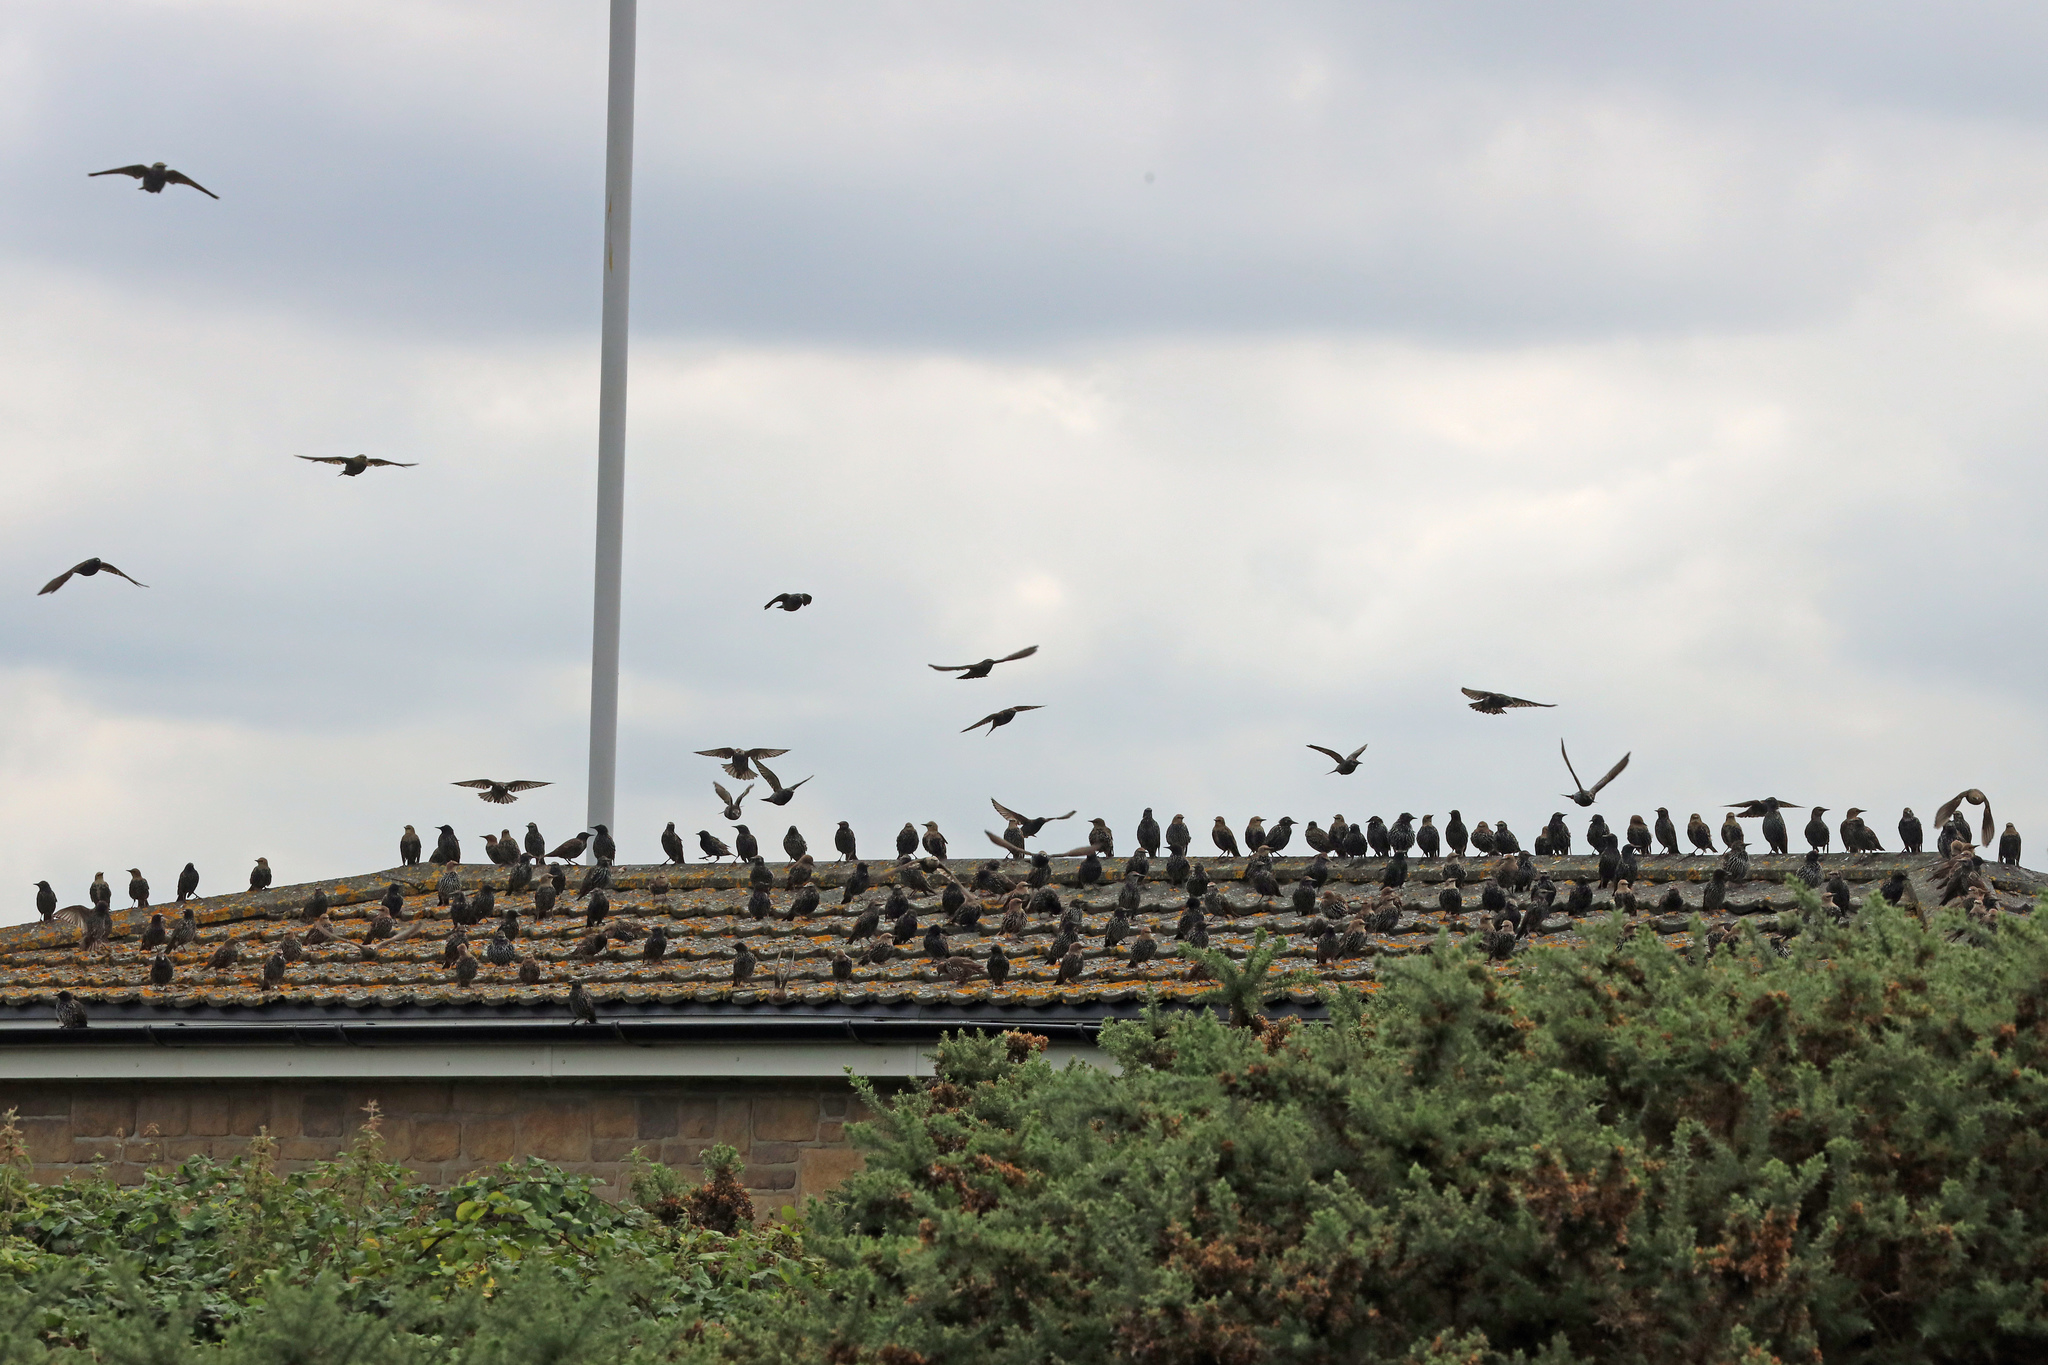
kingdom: Animalia
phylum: Chordata
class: Aves
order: Passeriformes
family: Sturnidae
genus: Sturnus
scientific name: Sturnus vulgaris
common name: Common starling
